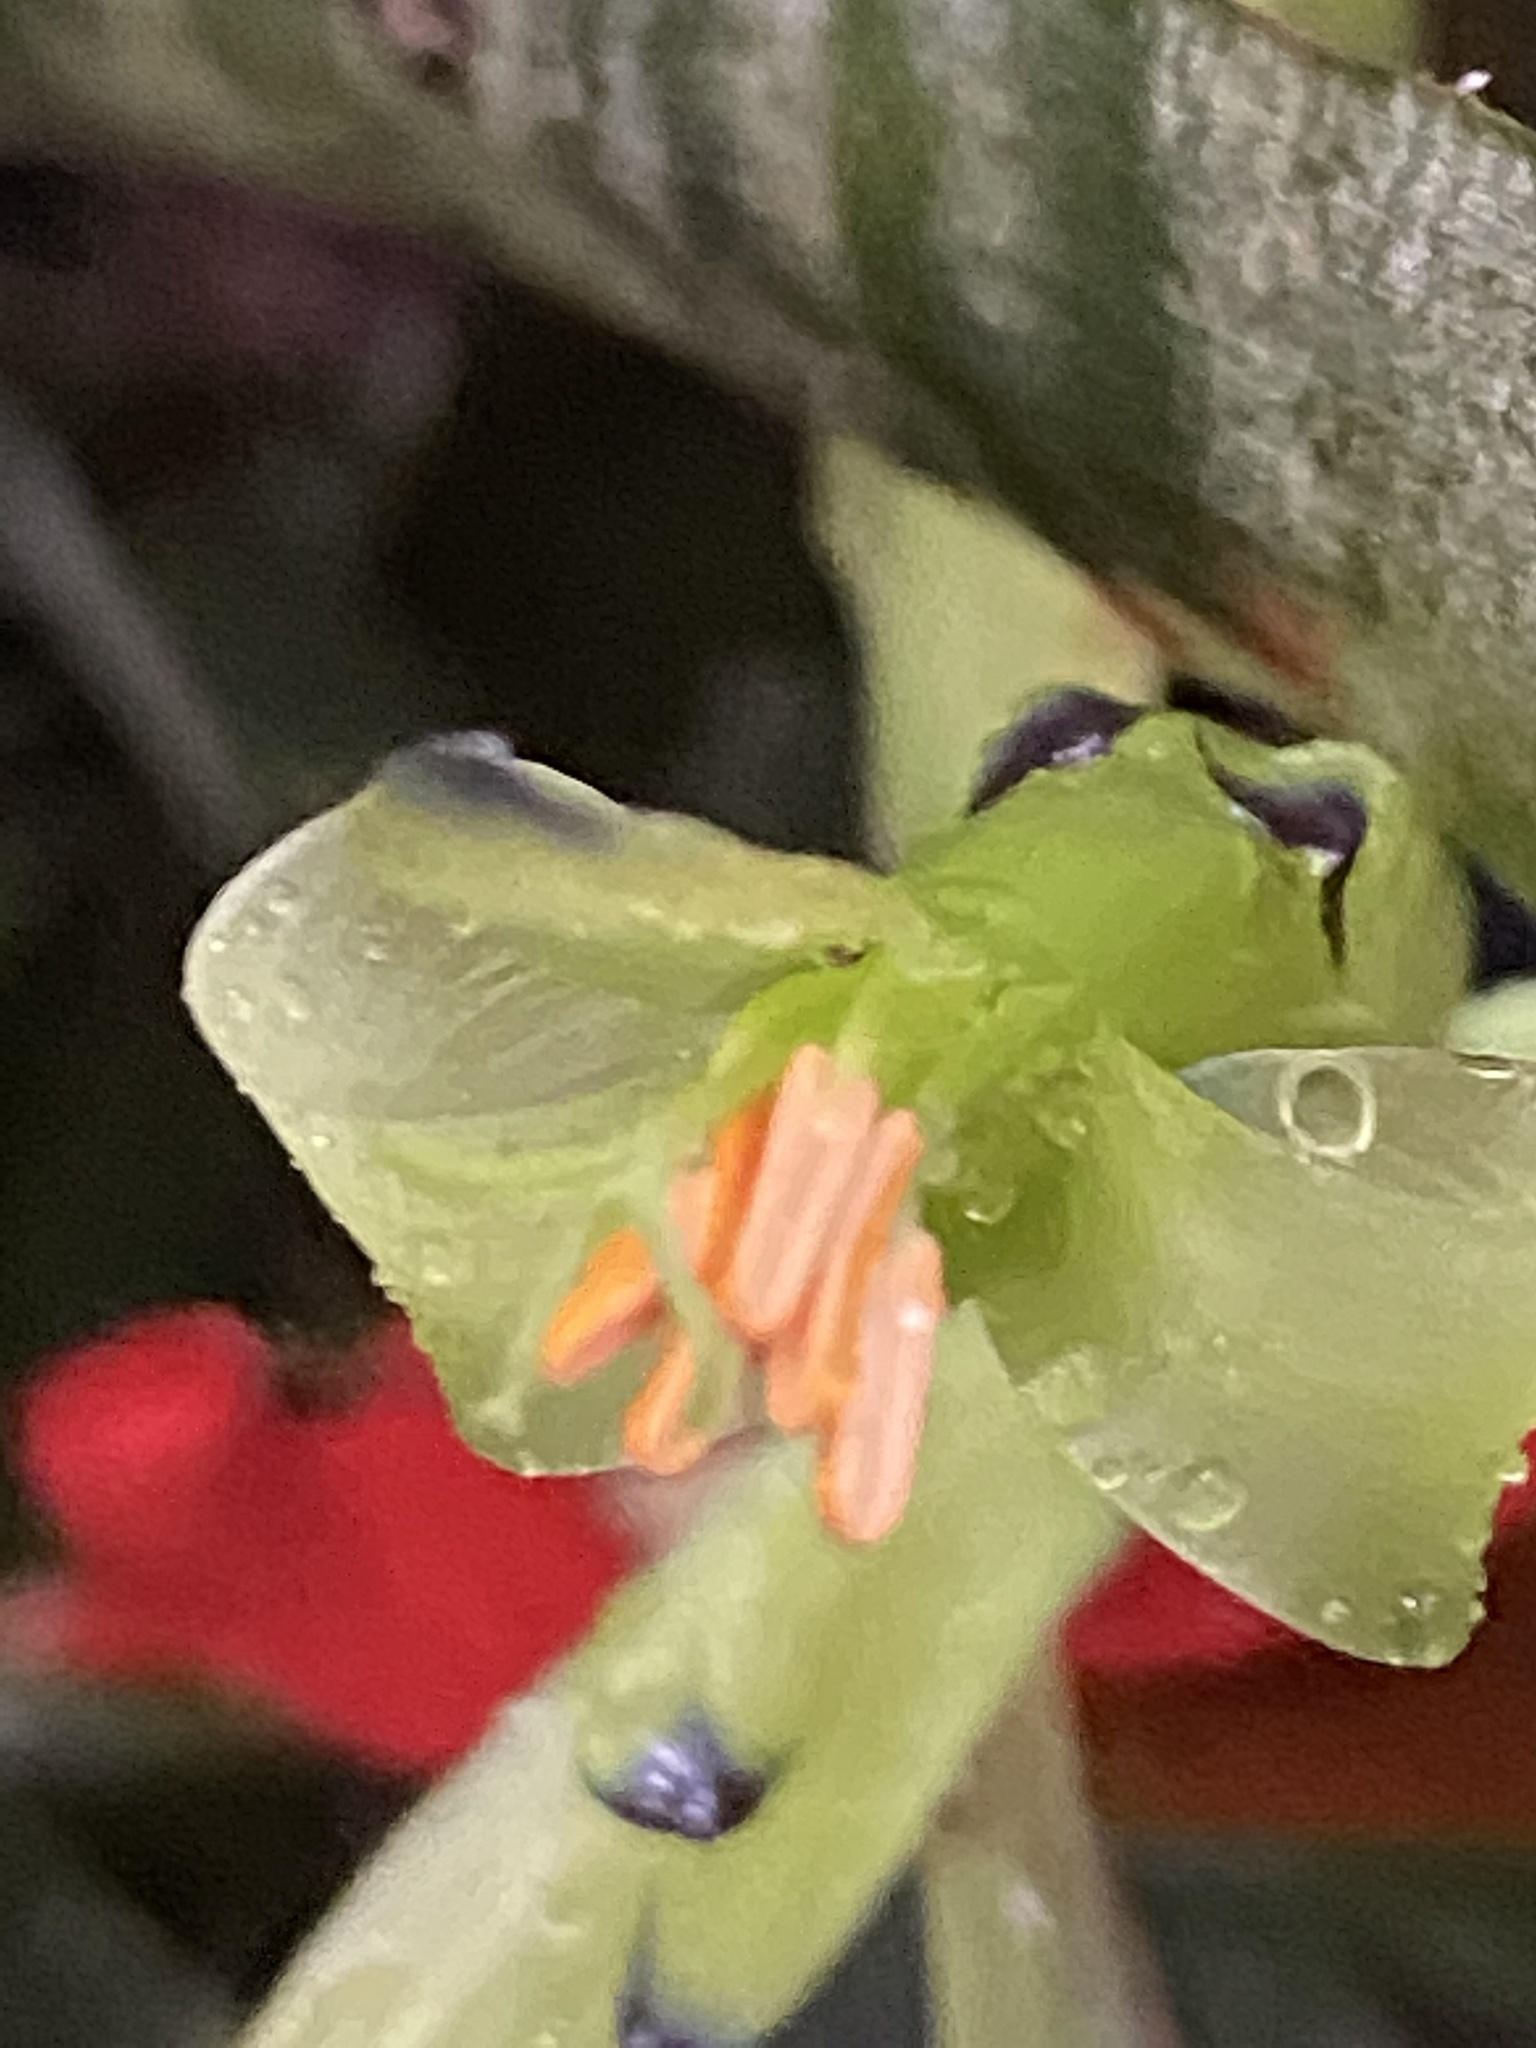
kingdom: Plantae
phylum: Tracheophyta
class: Liliopsida
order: Poales
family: Bromeliaceae
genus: Billbergia
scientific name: Billbergia amoena
